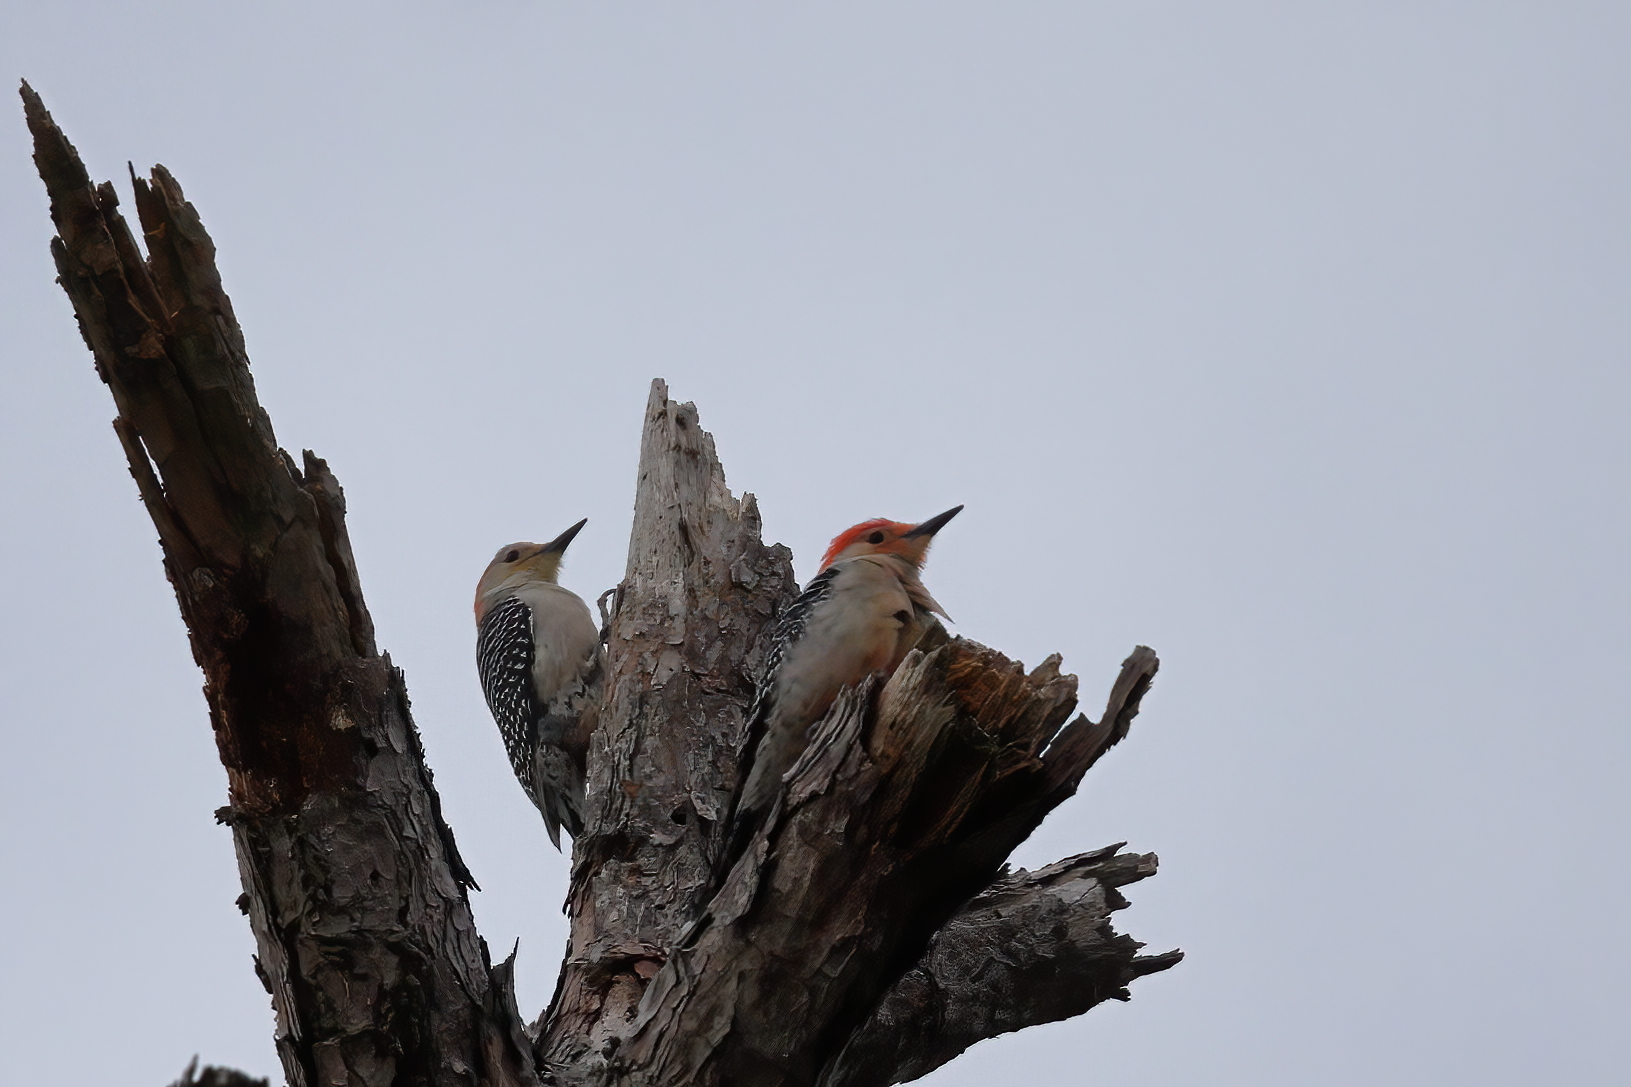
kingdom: Animalia
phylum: Chordata
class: Aves
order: Piciformes
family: Picidae
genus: Melanerpes
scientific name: Melanerpes carolinus
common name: Red-bellied woodpecker
